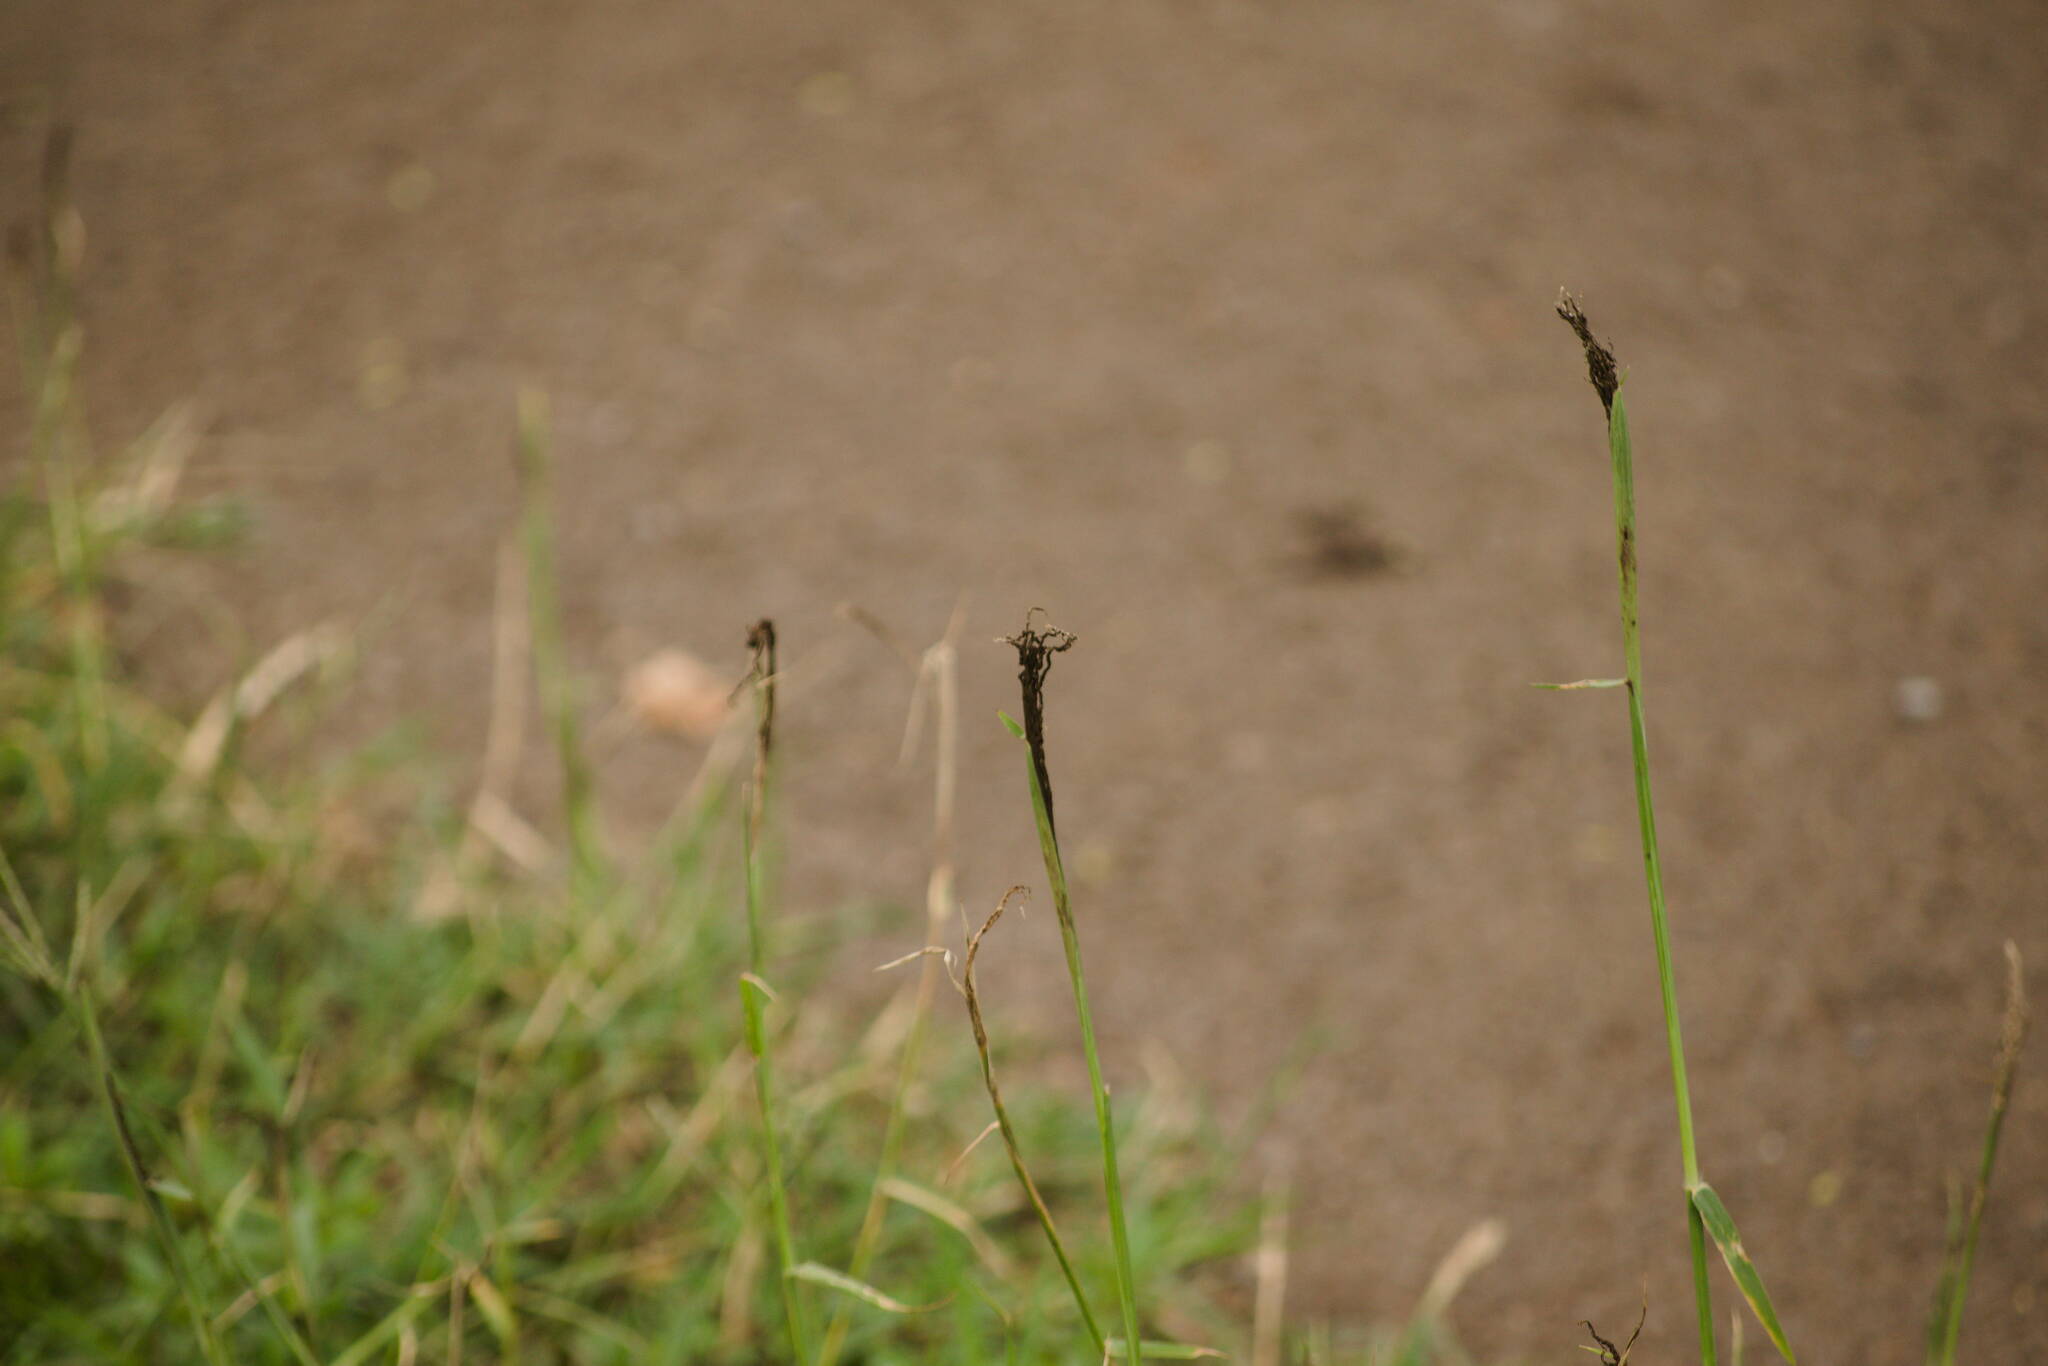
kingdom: Fungi
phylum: Basidiomycota
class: Ustilaginomycetes
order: Ustilaginales
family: Ustilaginaceae
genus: Ustilago
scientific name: Ustilago cynodontis
